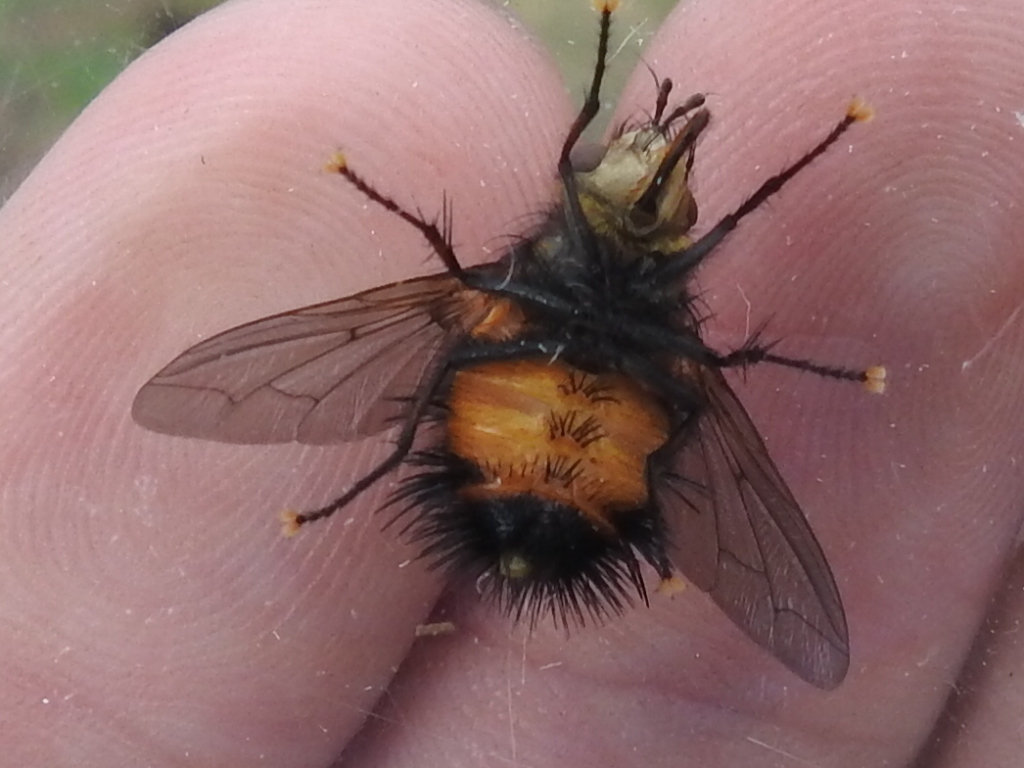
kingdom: Animalia
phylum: Arthropoda
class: Insecta
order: Diptera
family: Tachinidae
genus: Protodejeania
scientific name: Protodejeania hystricosa
